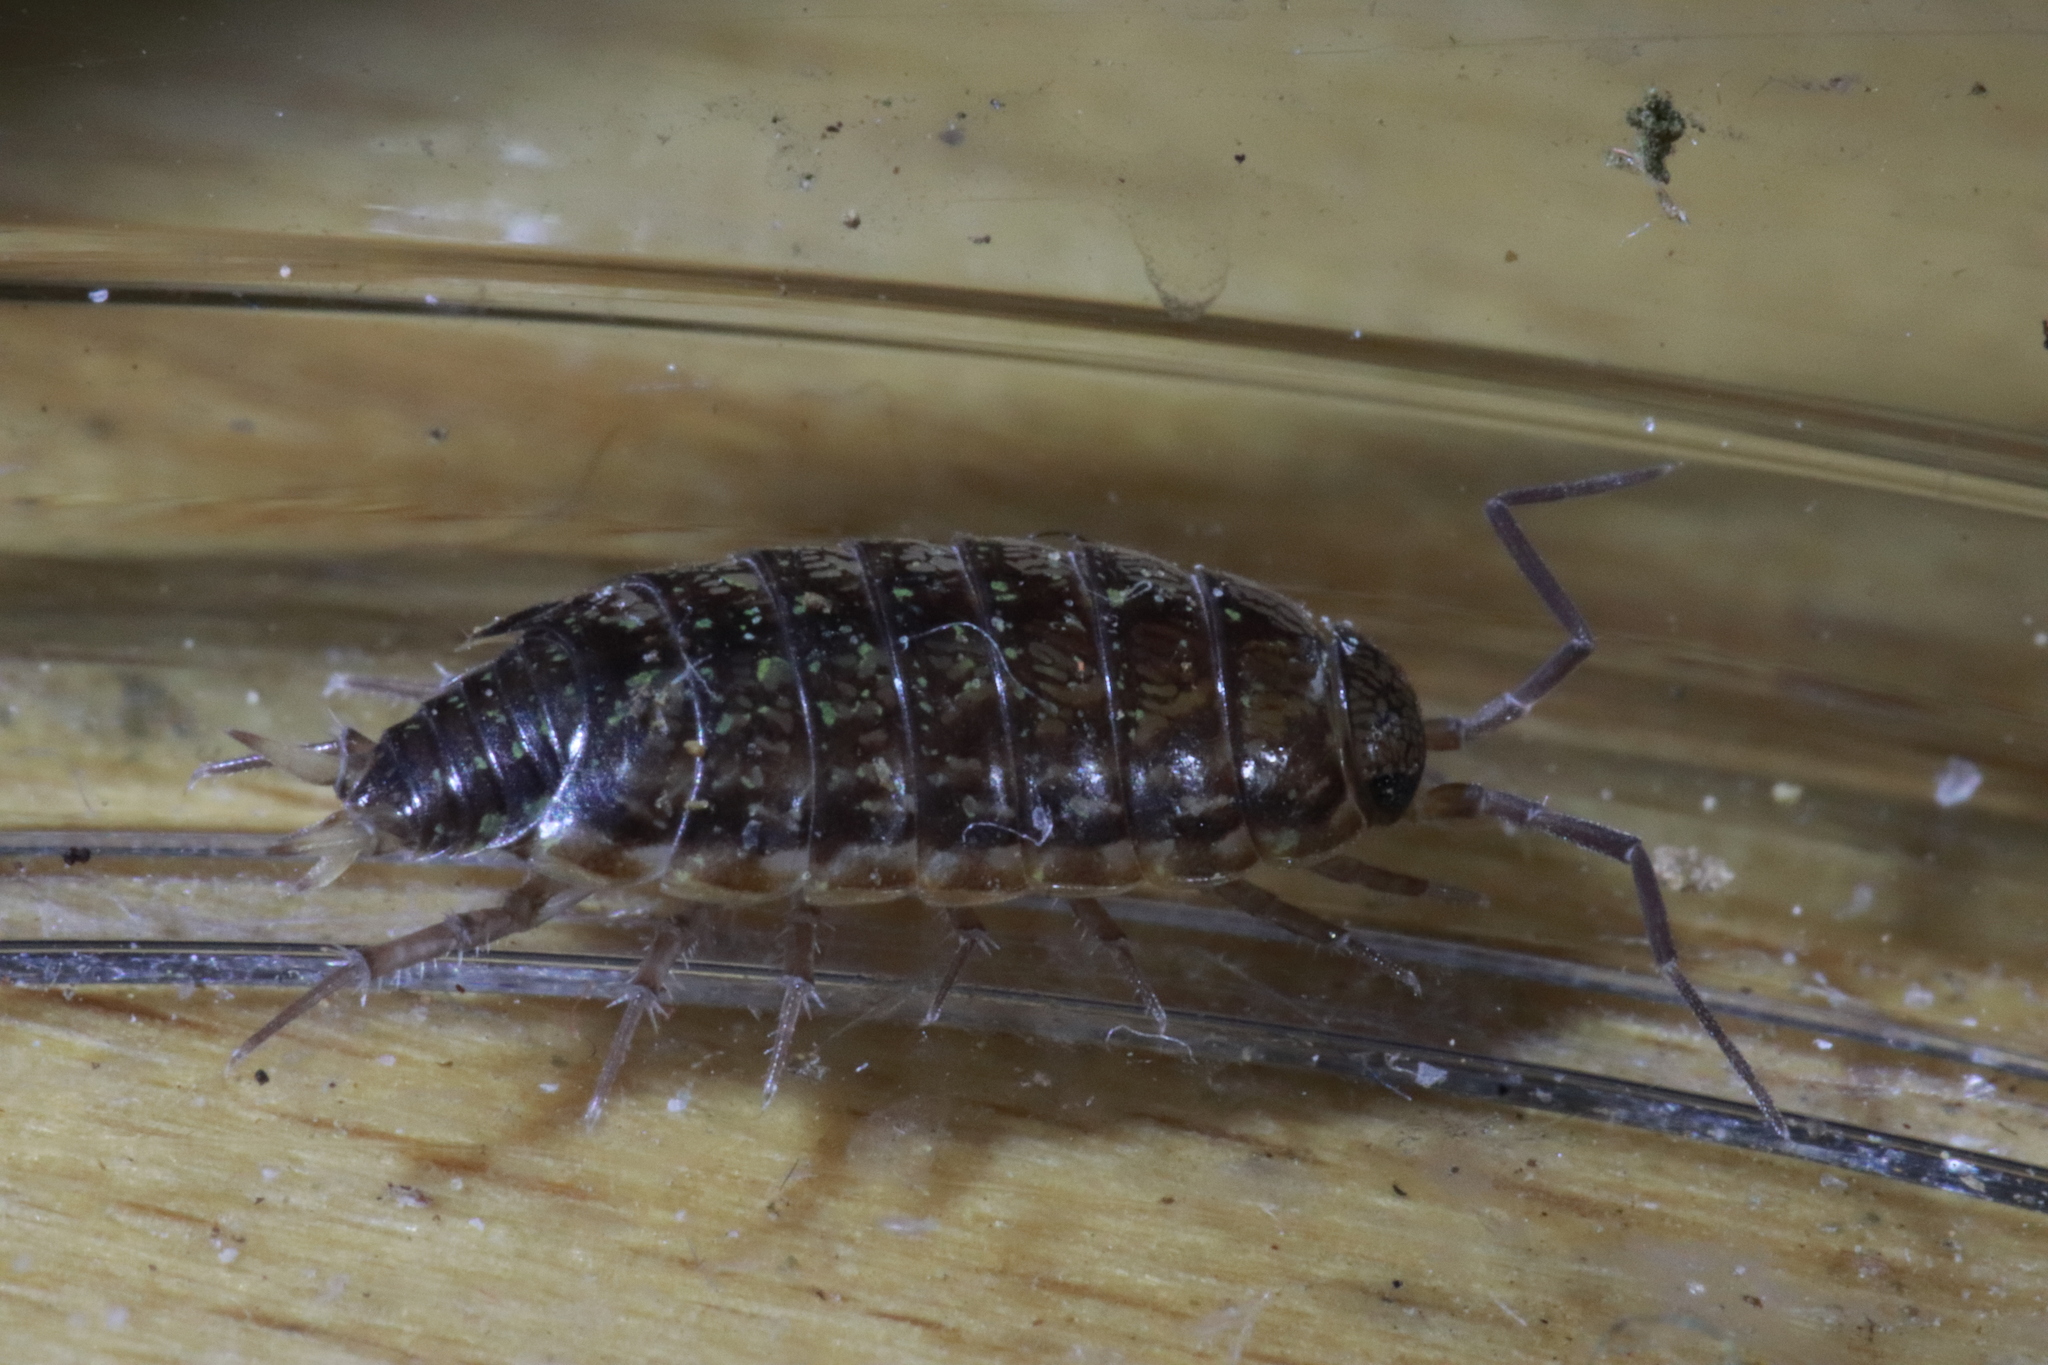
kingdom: Animalia
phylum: Arthropoda
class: Malacostraca
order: Isopoda
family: Philosciidae
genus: Philoscia
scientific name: Philoscia muscorum
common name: Common striped woodlouse
